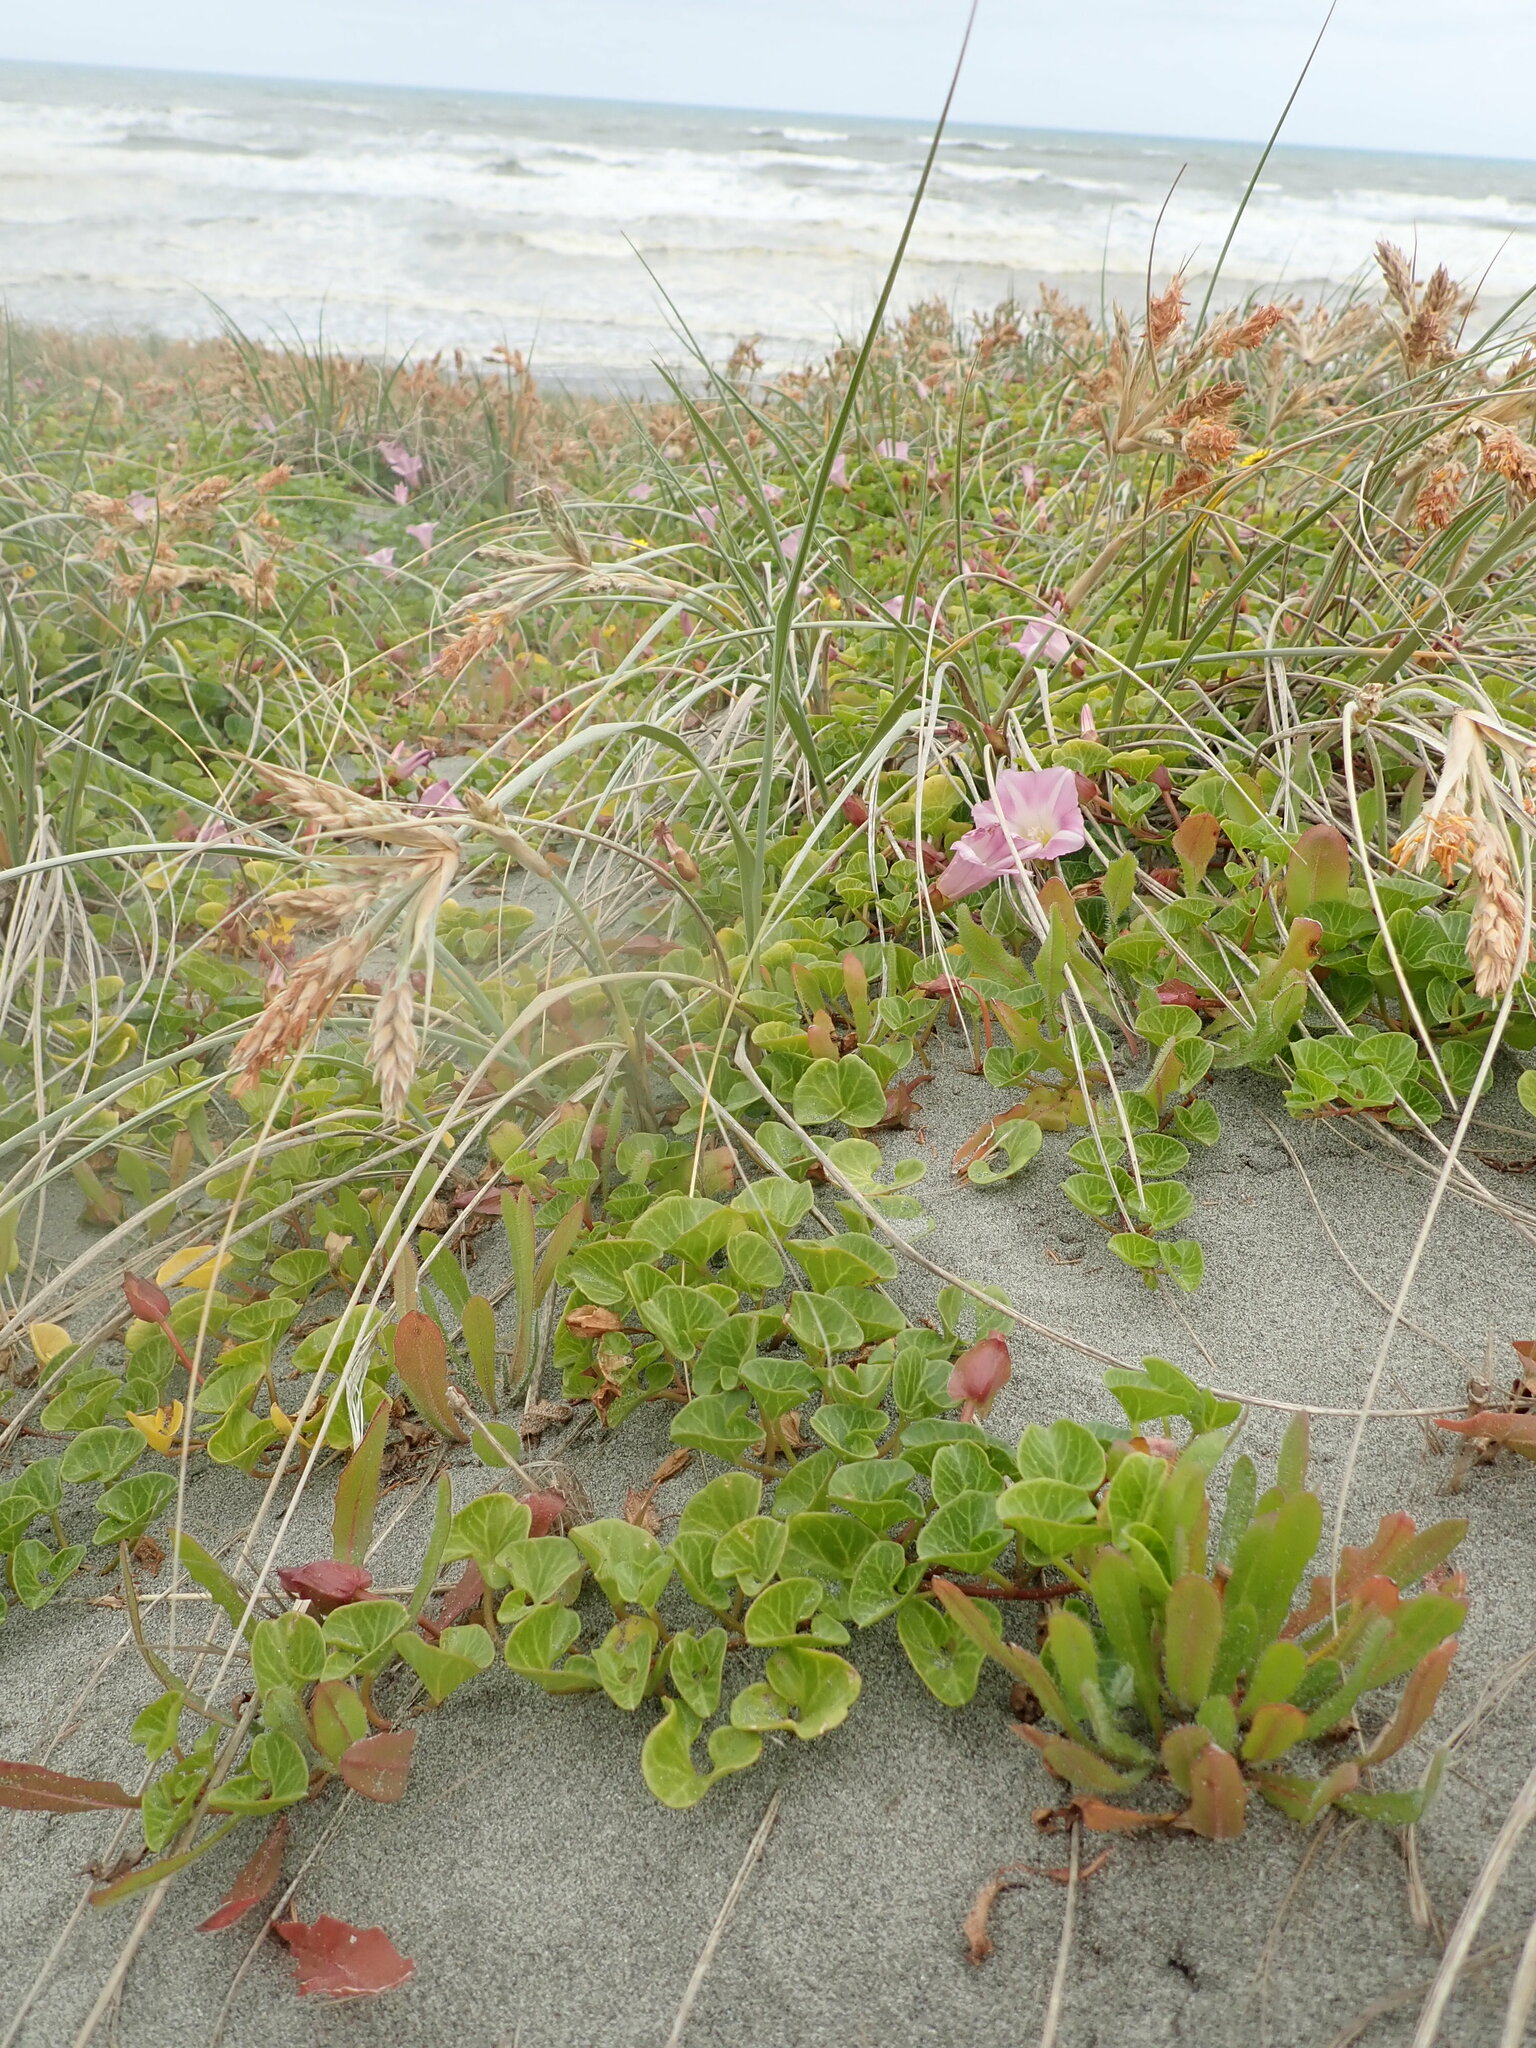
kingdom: Plantae
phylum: Tracheophyta
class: Magnoliopsida
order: Solanales
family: Convolvulaceae
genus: Calystegia
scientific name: Calystegia soldanella
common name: Sea bindweed
